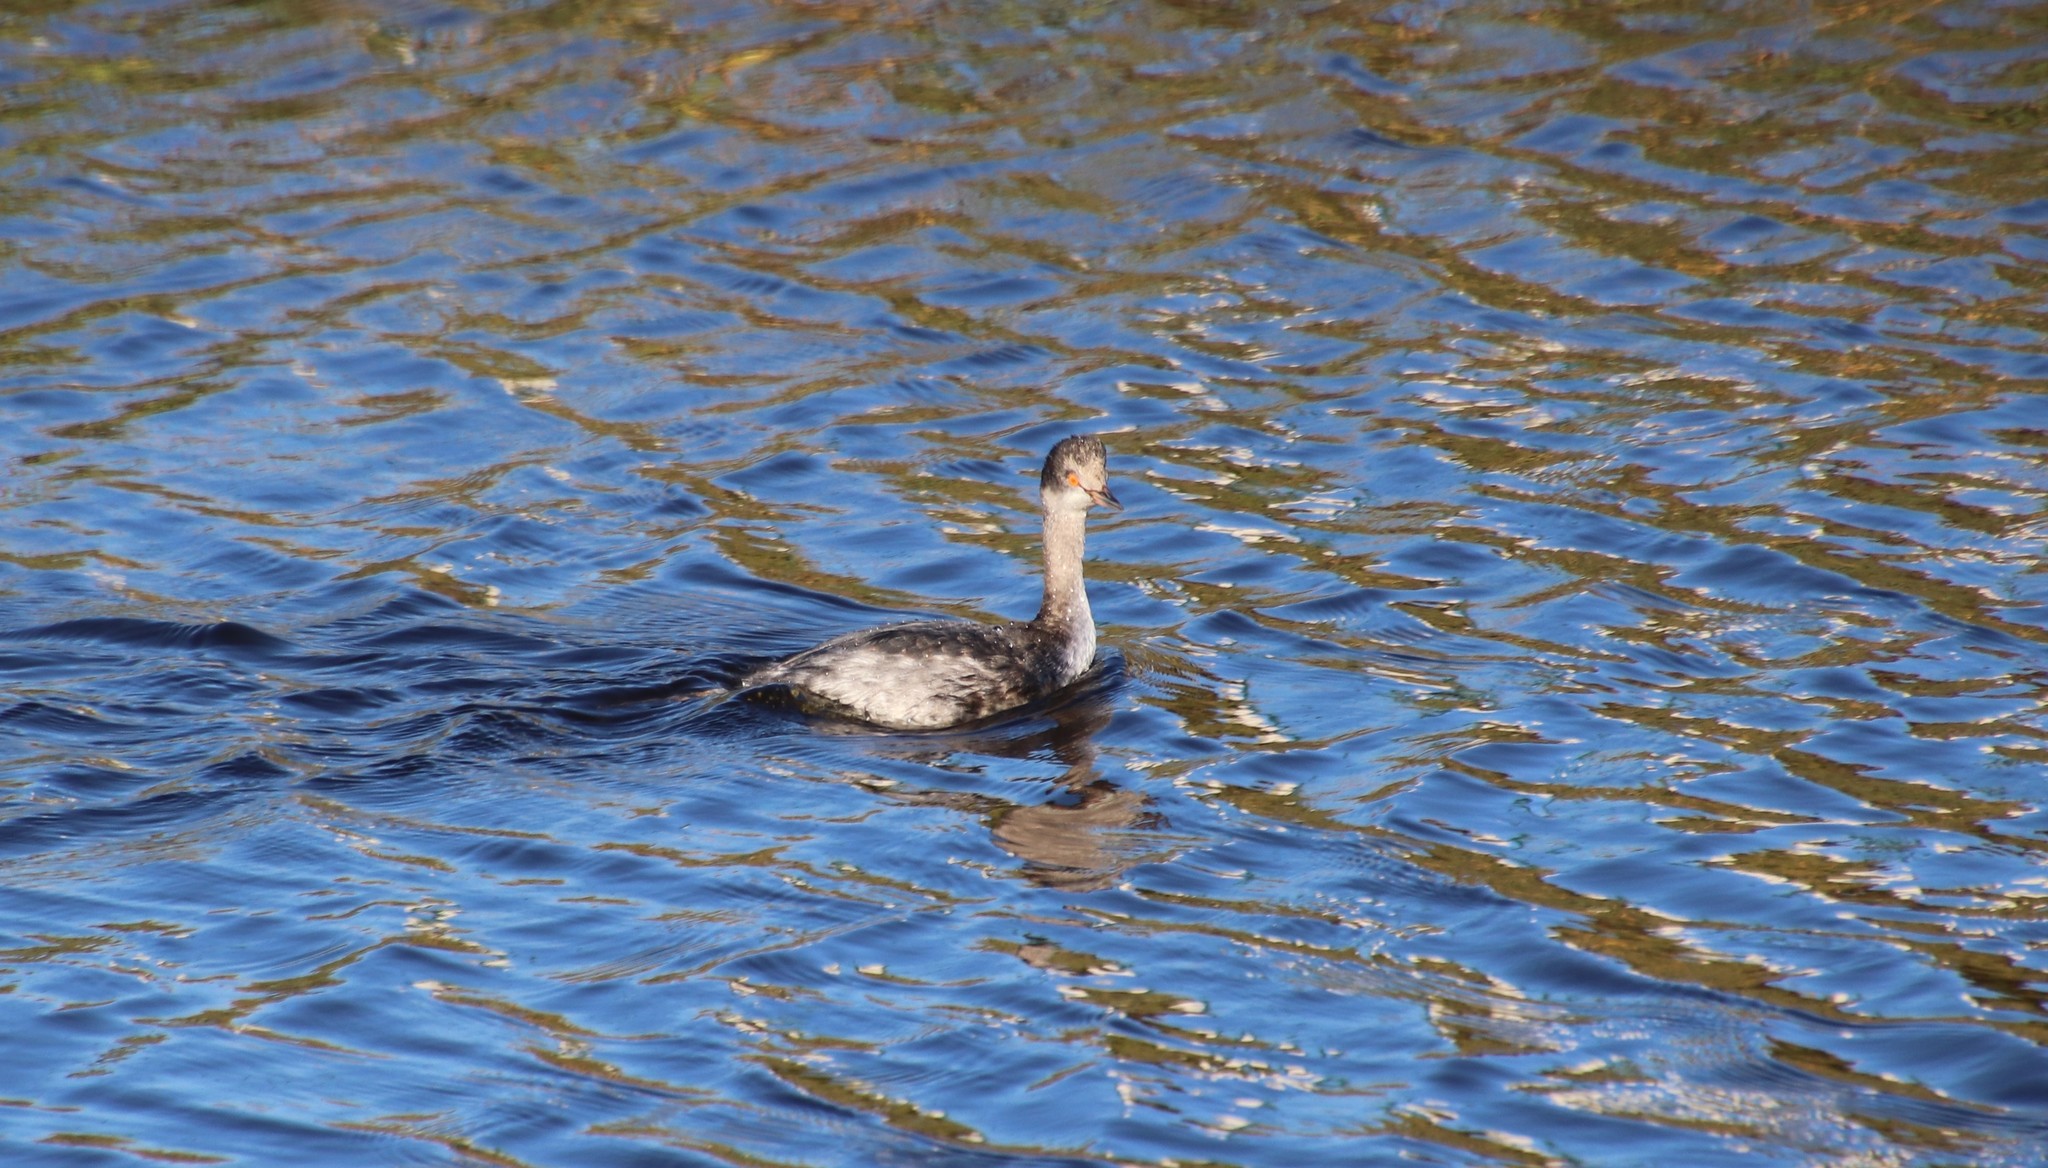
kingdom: Animalia
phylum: Chordata
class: Aves
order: Podicipediformes
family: Podicipedidae
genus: Podiceps
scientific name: Podiceps nigricollis
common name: Black-necked grebe
